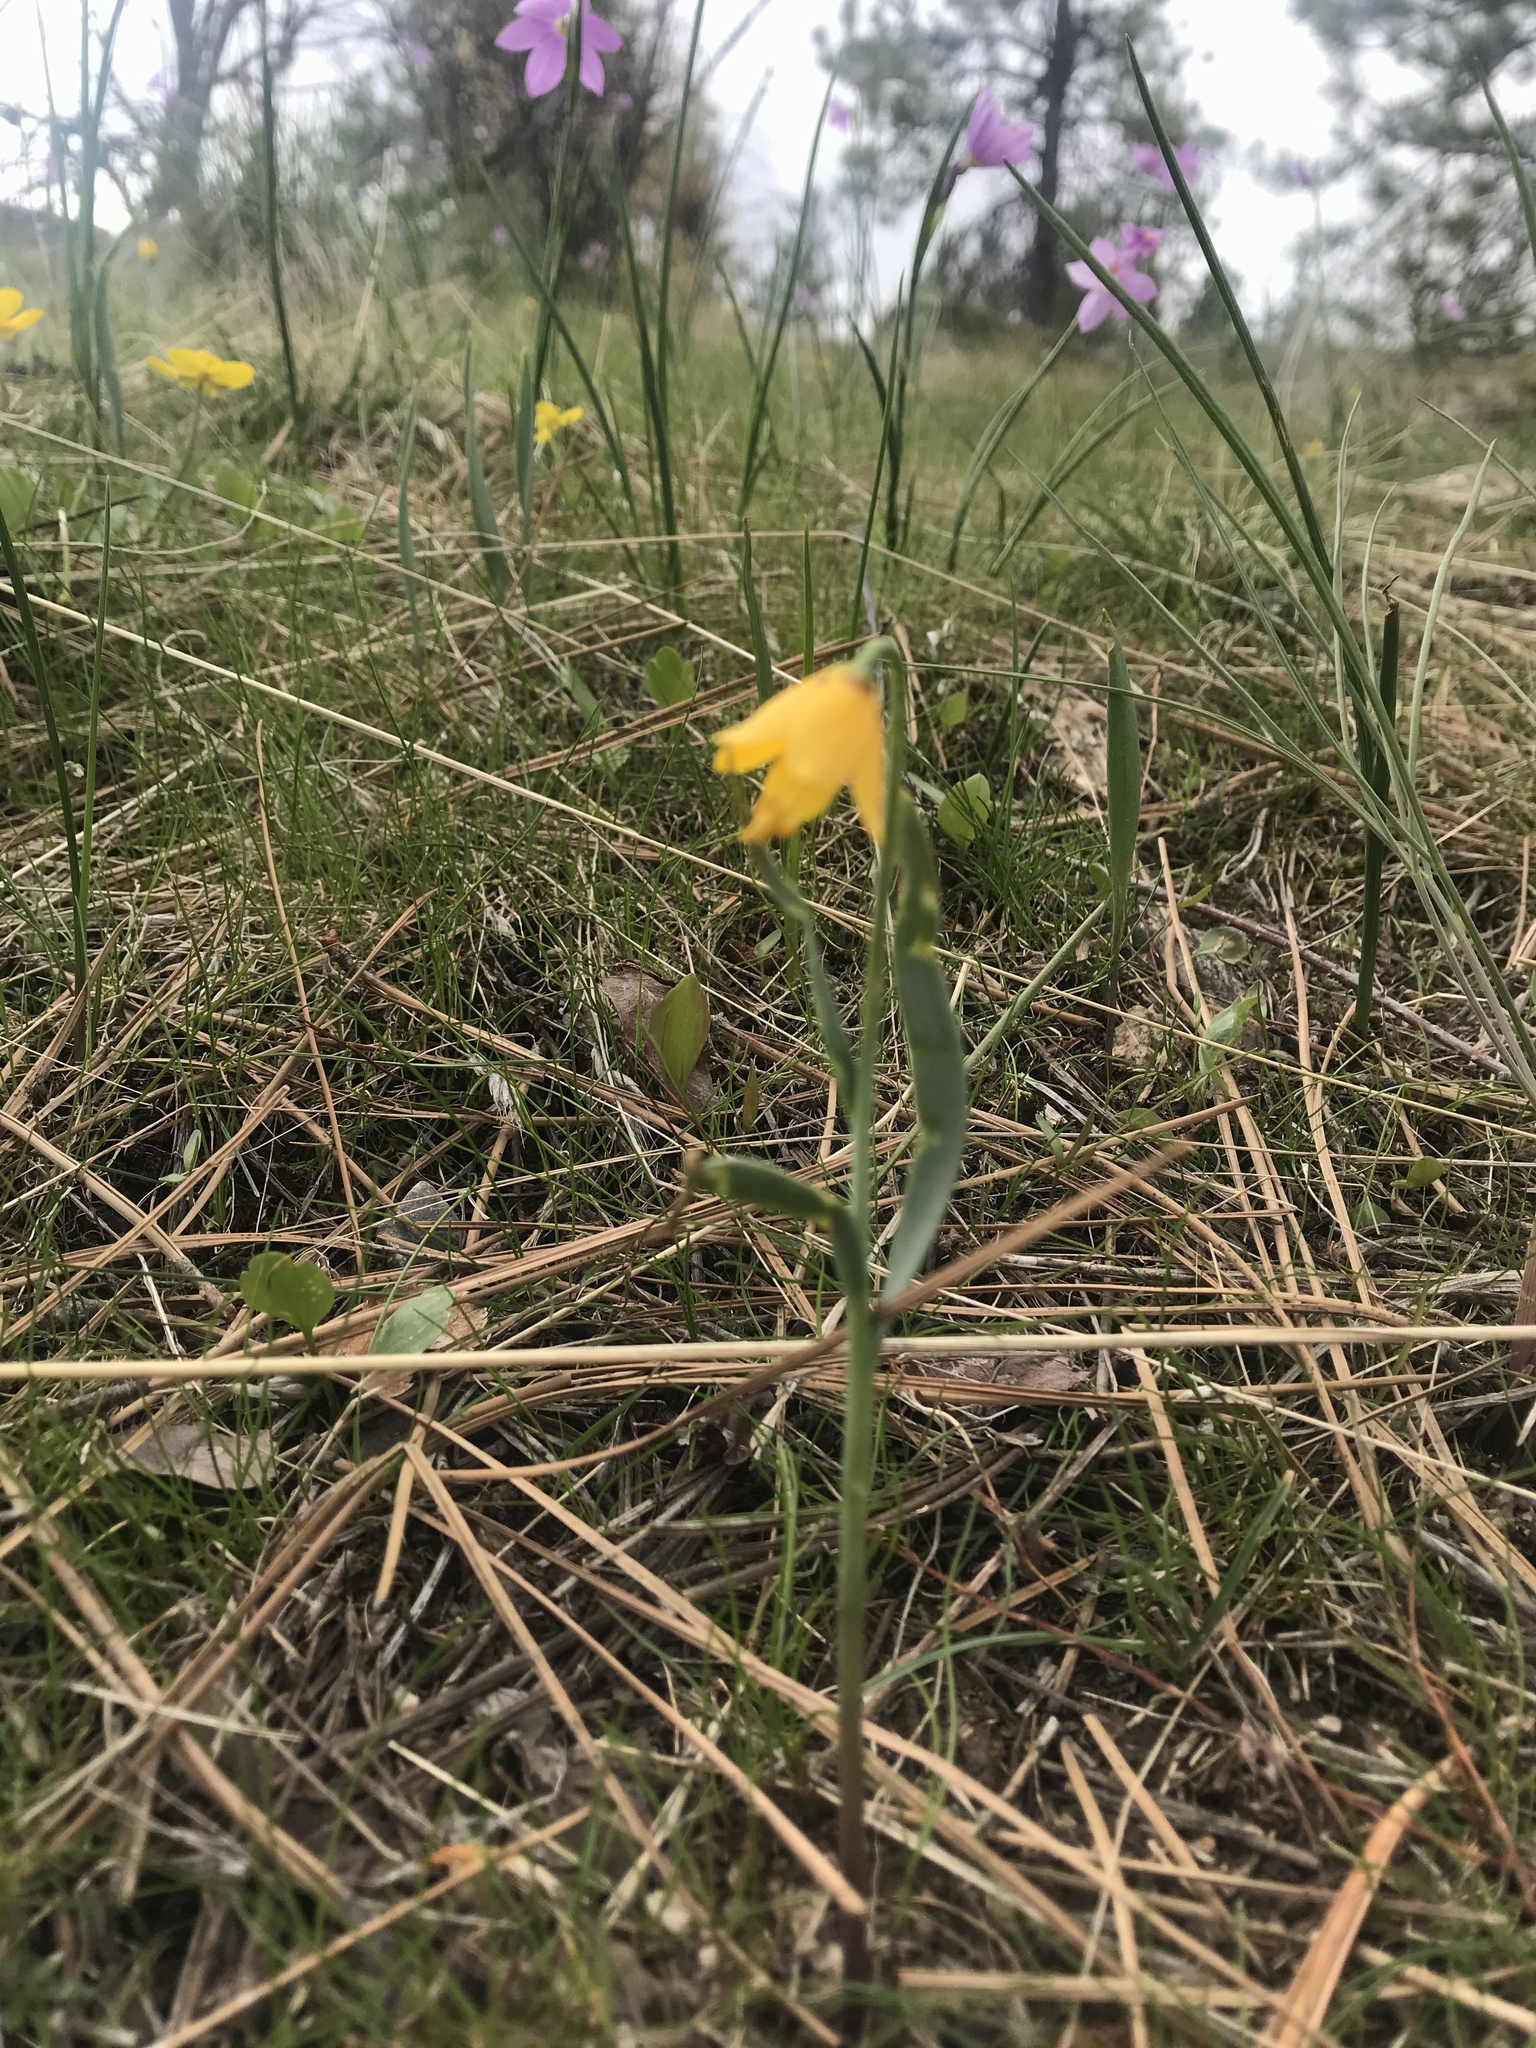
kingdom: Plantae
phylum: Tracheophyta
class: Liliopsida
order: Liliales
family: Liliaceae
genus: Fritillaria
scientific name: Fritillaria pudica
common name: Yellow fritillary
